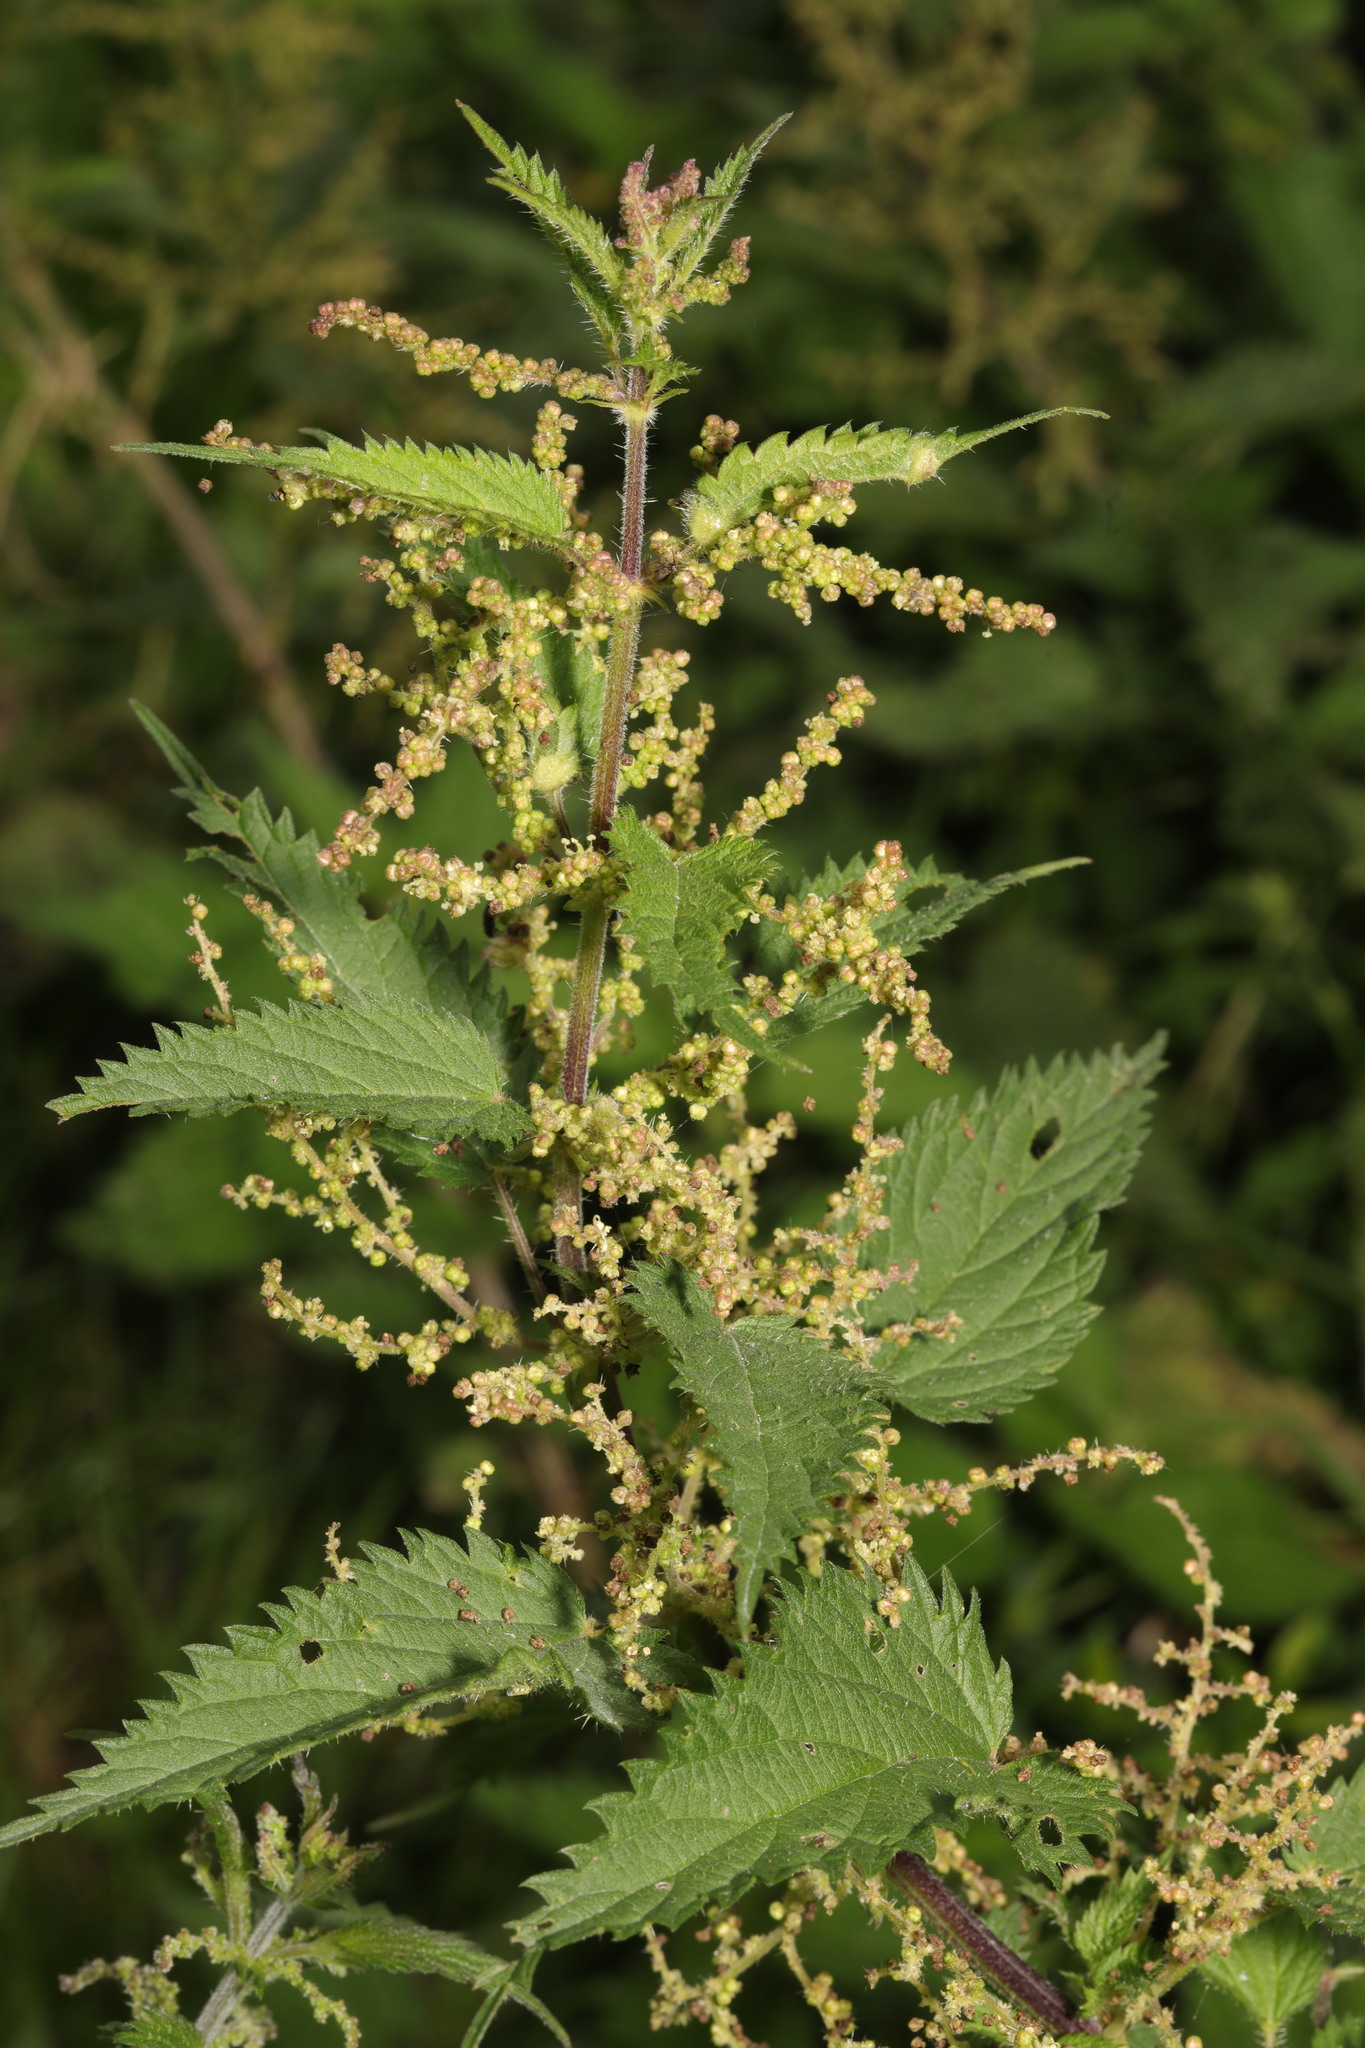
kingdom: Plantae
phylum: Tracheophyta
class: Magnoliopsida
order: Rosales
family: Urticaceae
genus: Urtica
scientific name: Urtica dioica
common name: Common nettle
